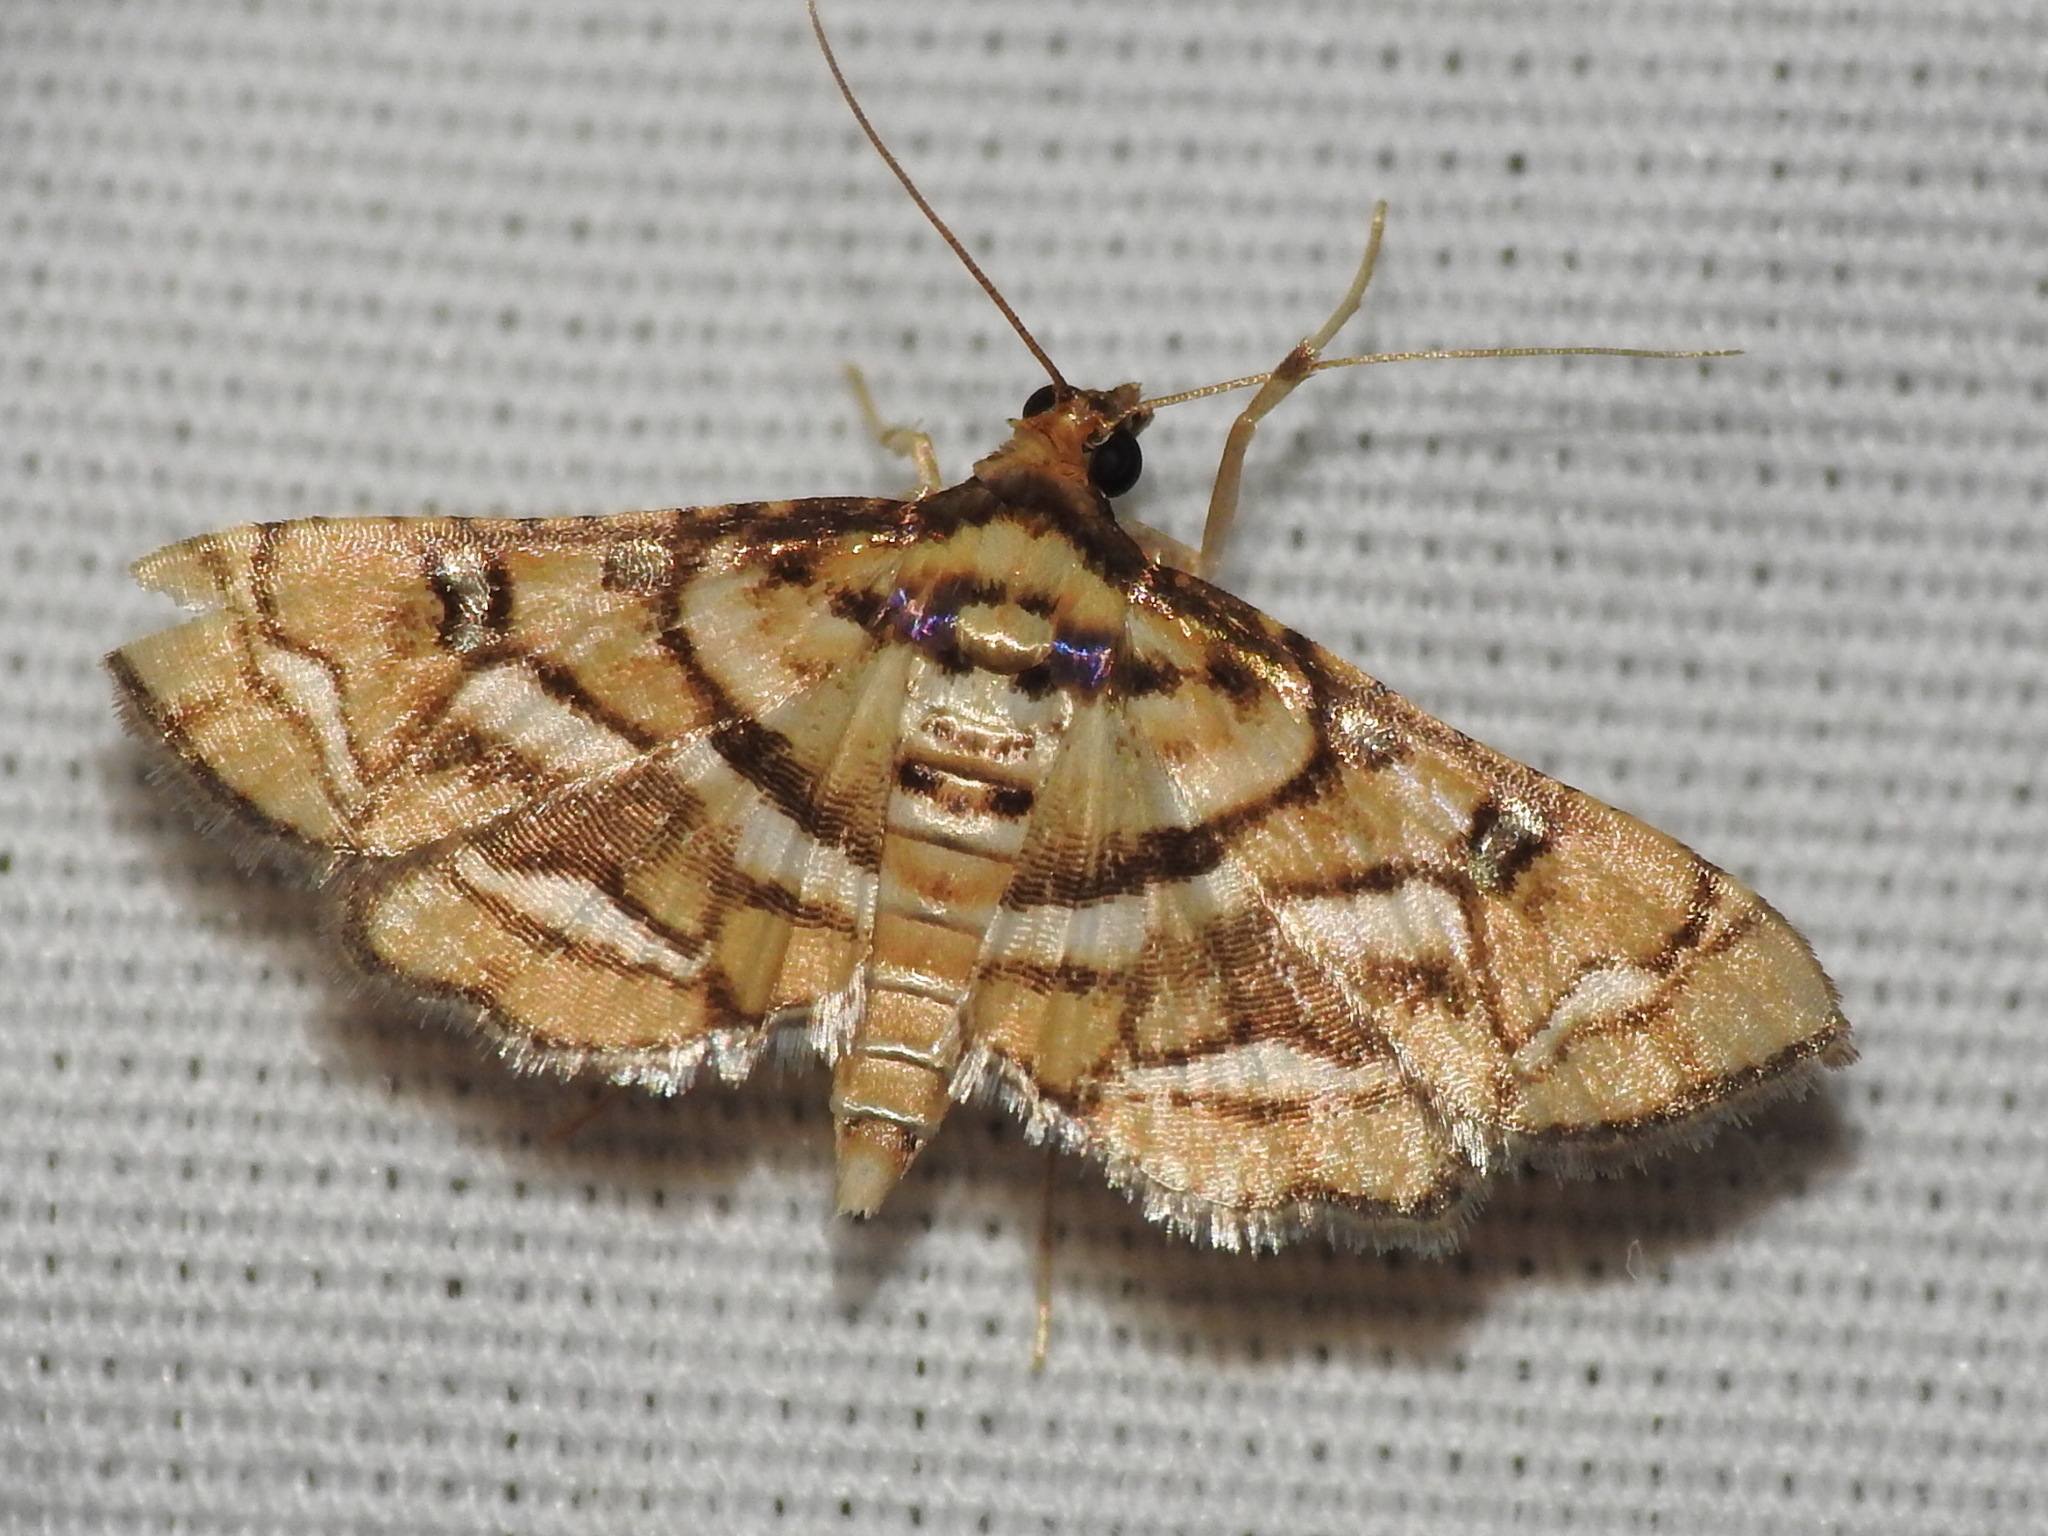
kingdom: Animalia
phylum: Arthropoda
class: Insecta
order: Lepidoptera
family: Crambidae
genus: Hileithia
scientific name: Hileithia magualis
